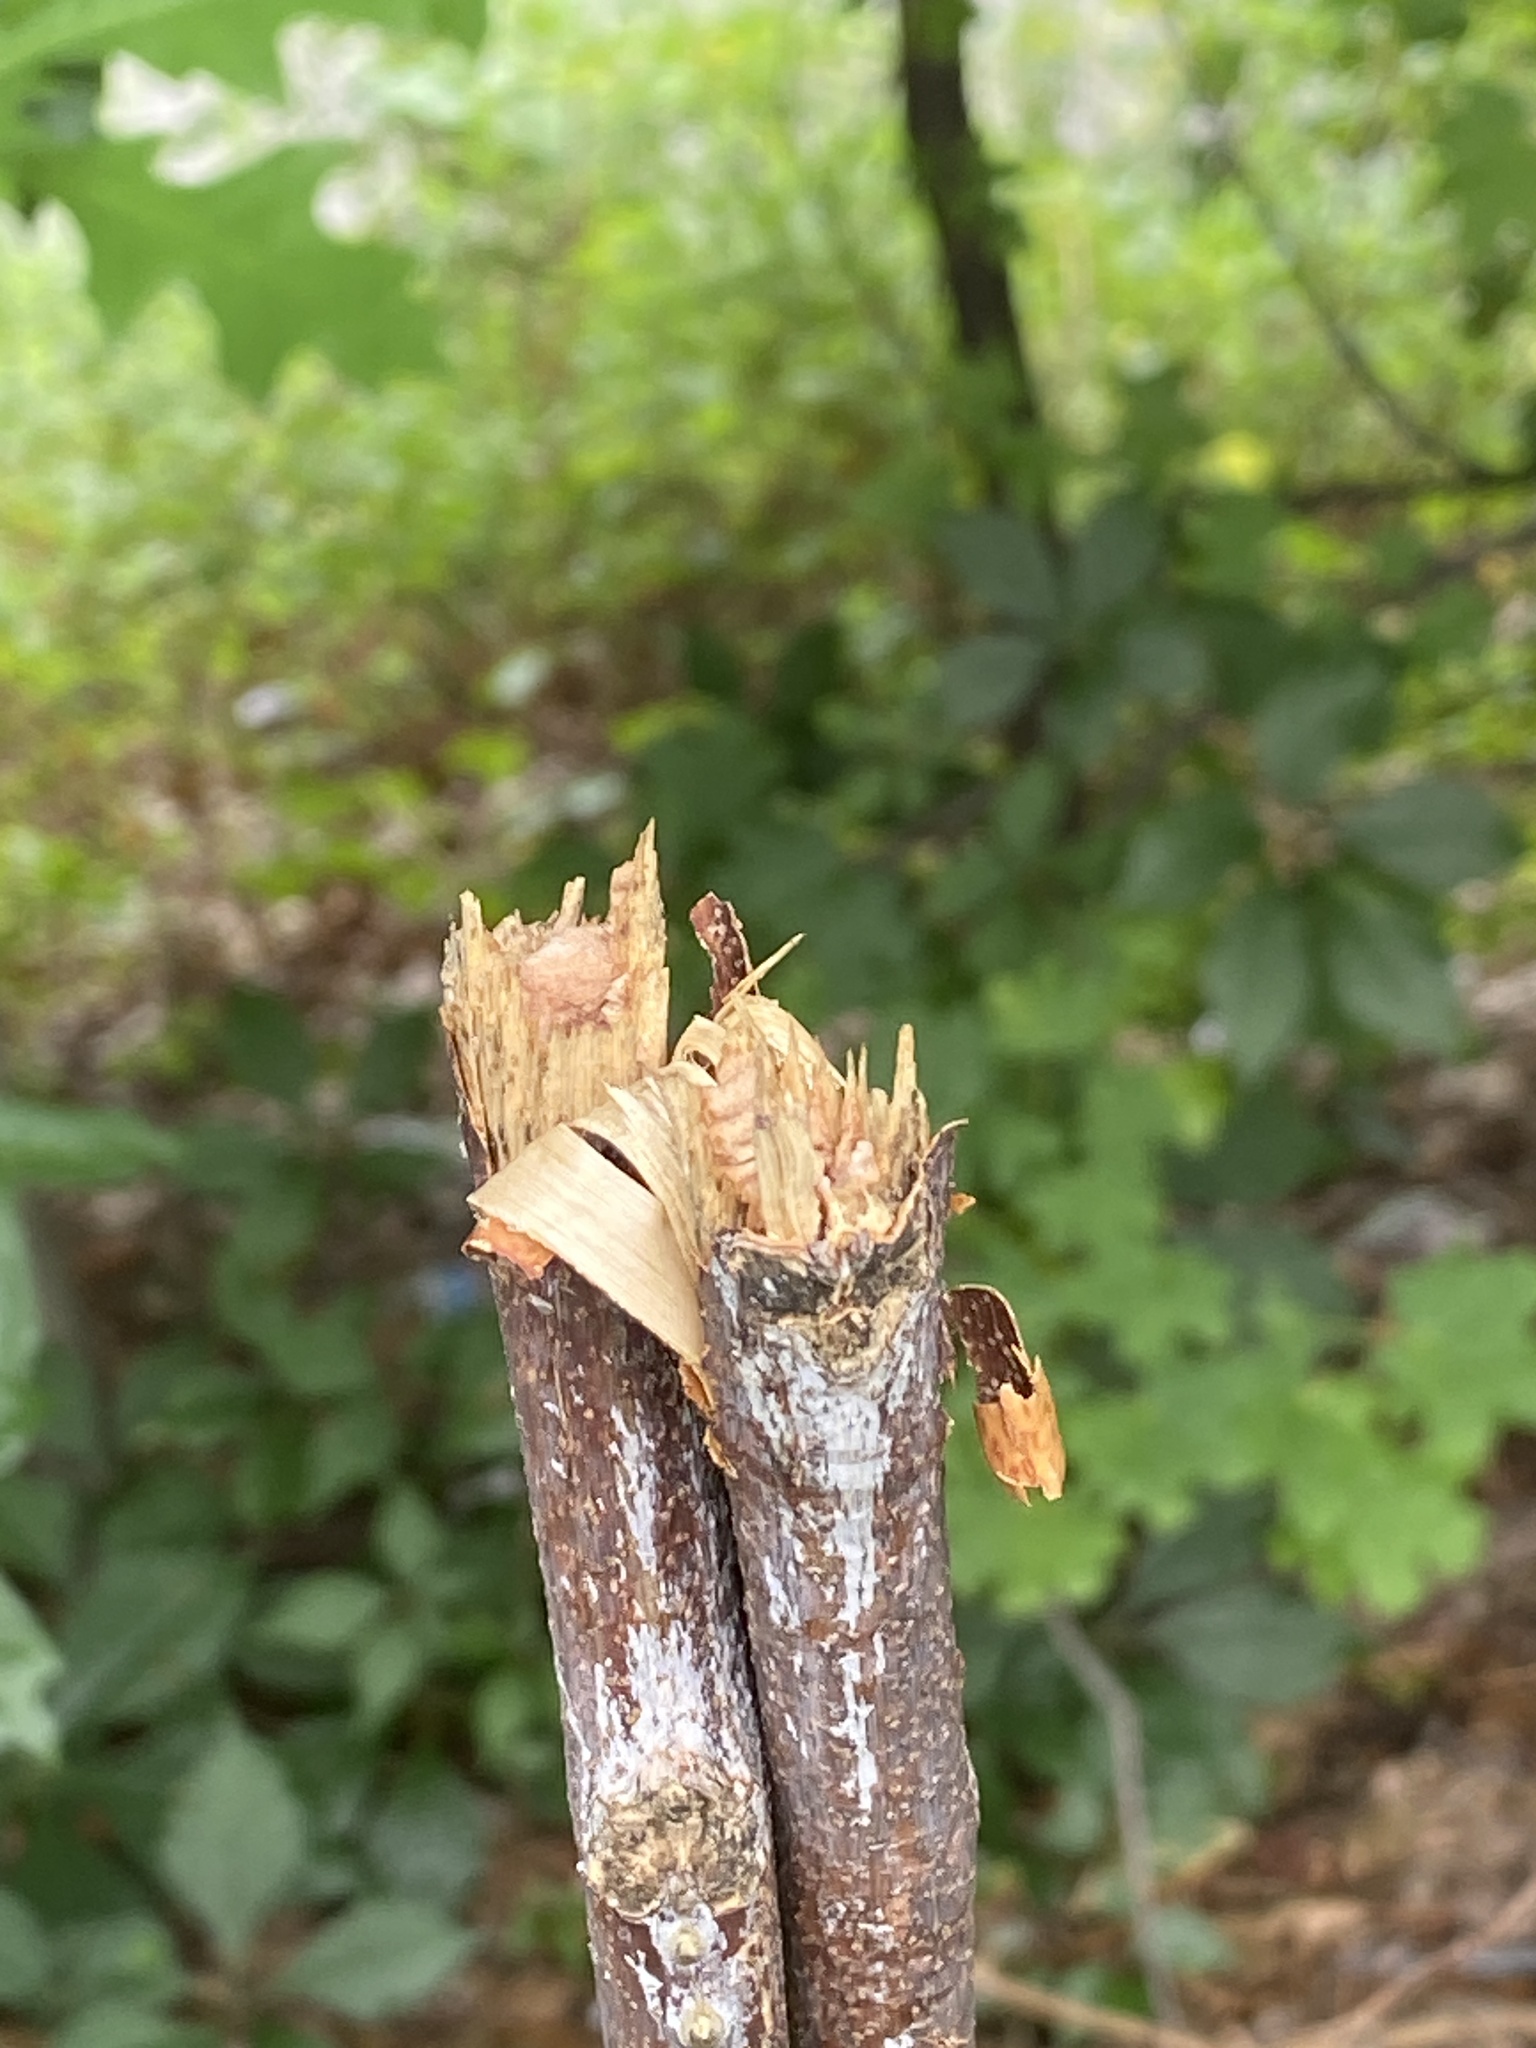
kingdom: Plantae
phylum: Tracheophyta
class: Magnoliopsida
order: Fabales
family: Fabaceae
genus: Gymnocladus
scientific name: Gymnocladus dioicus
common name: Kentucky coffee-tree
